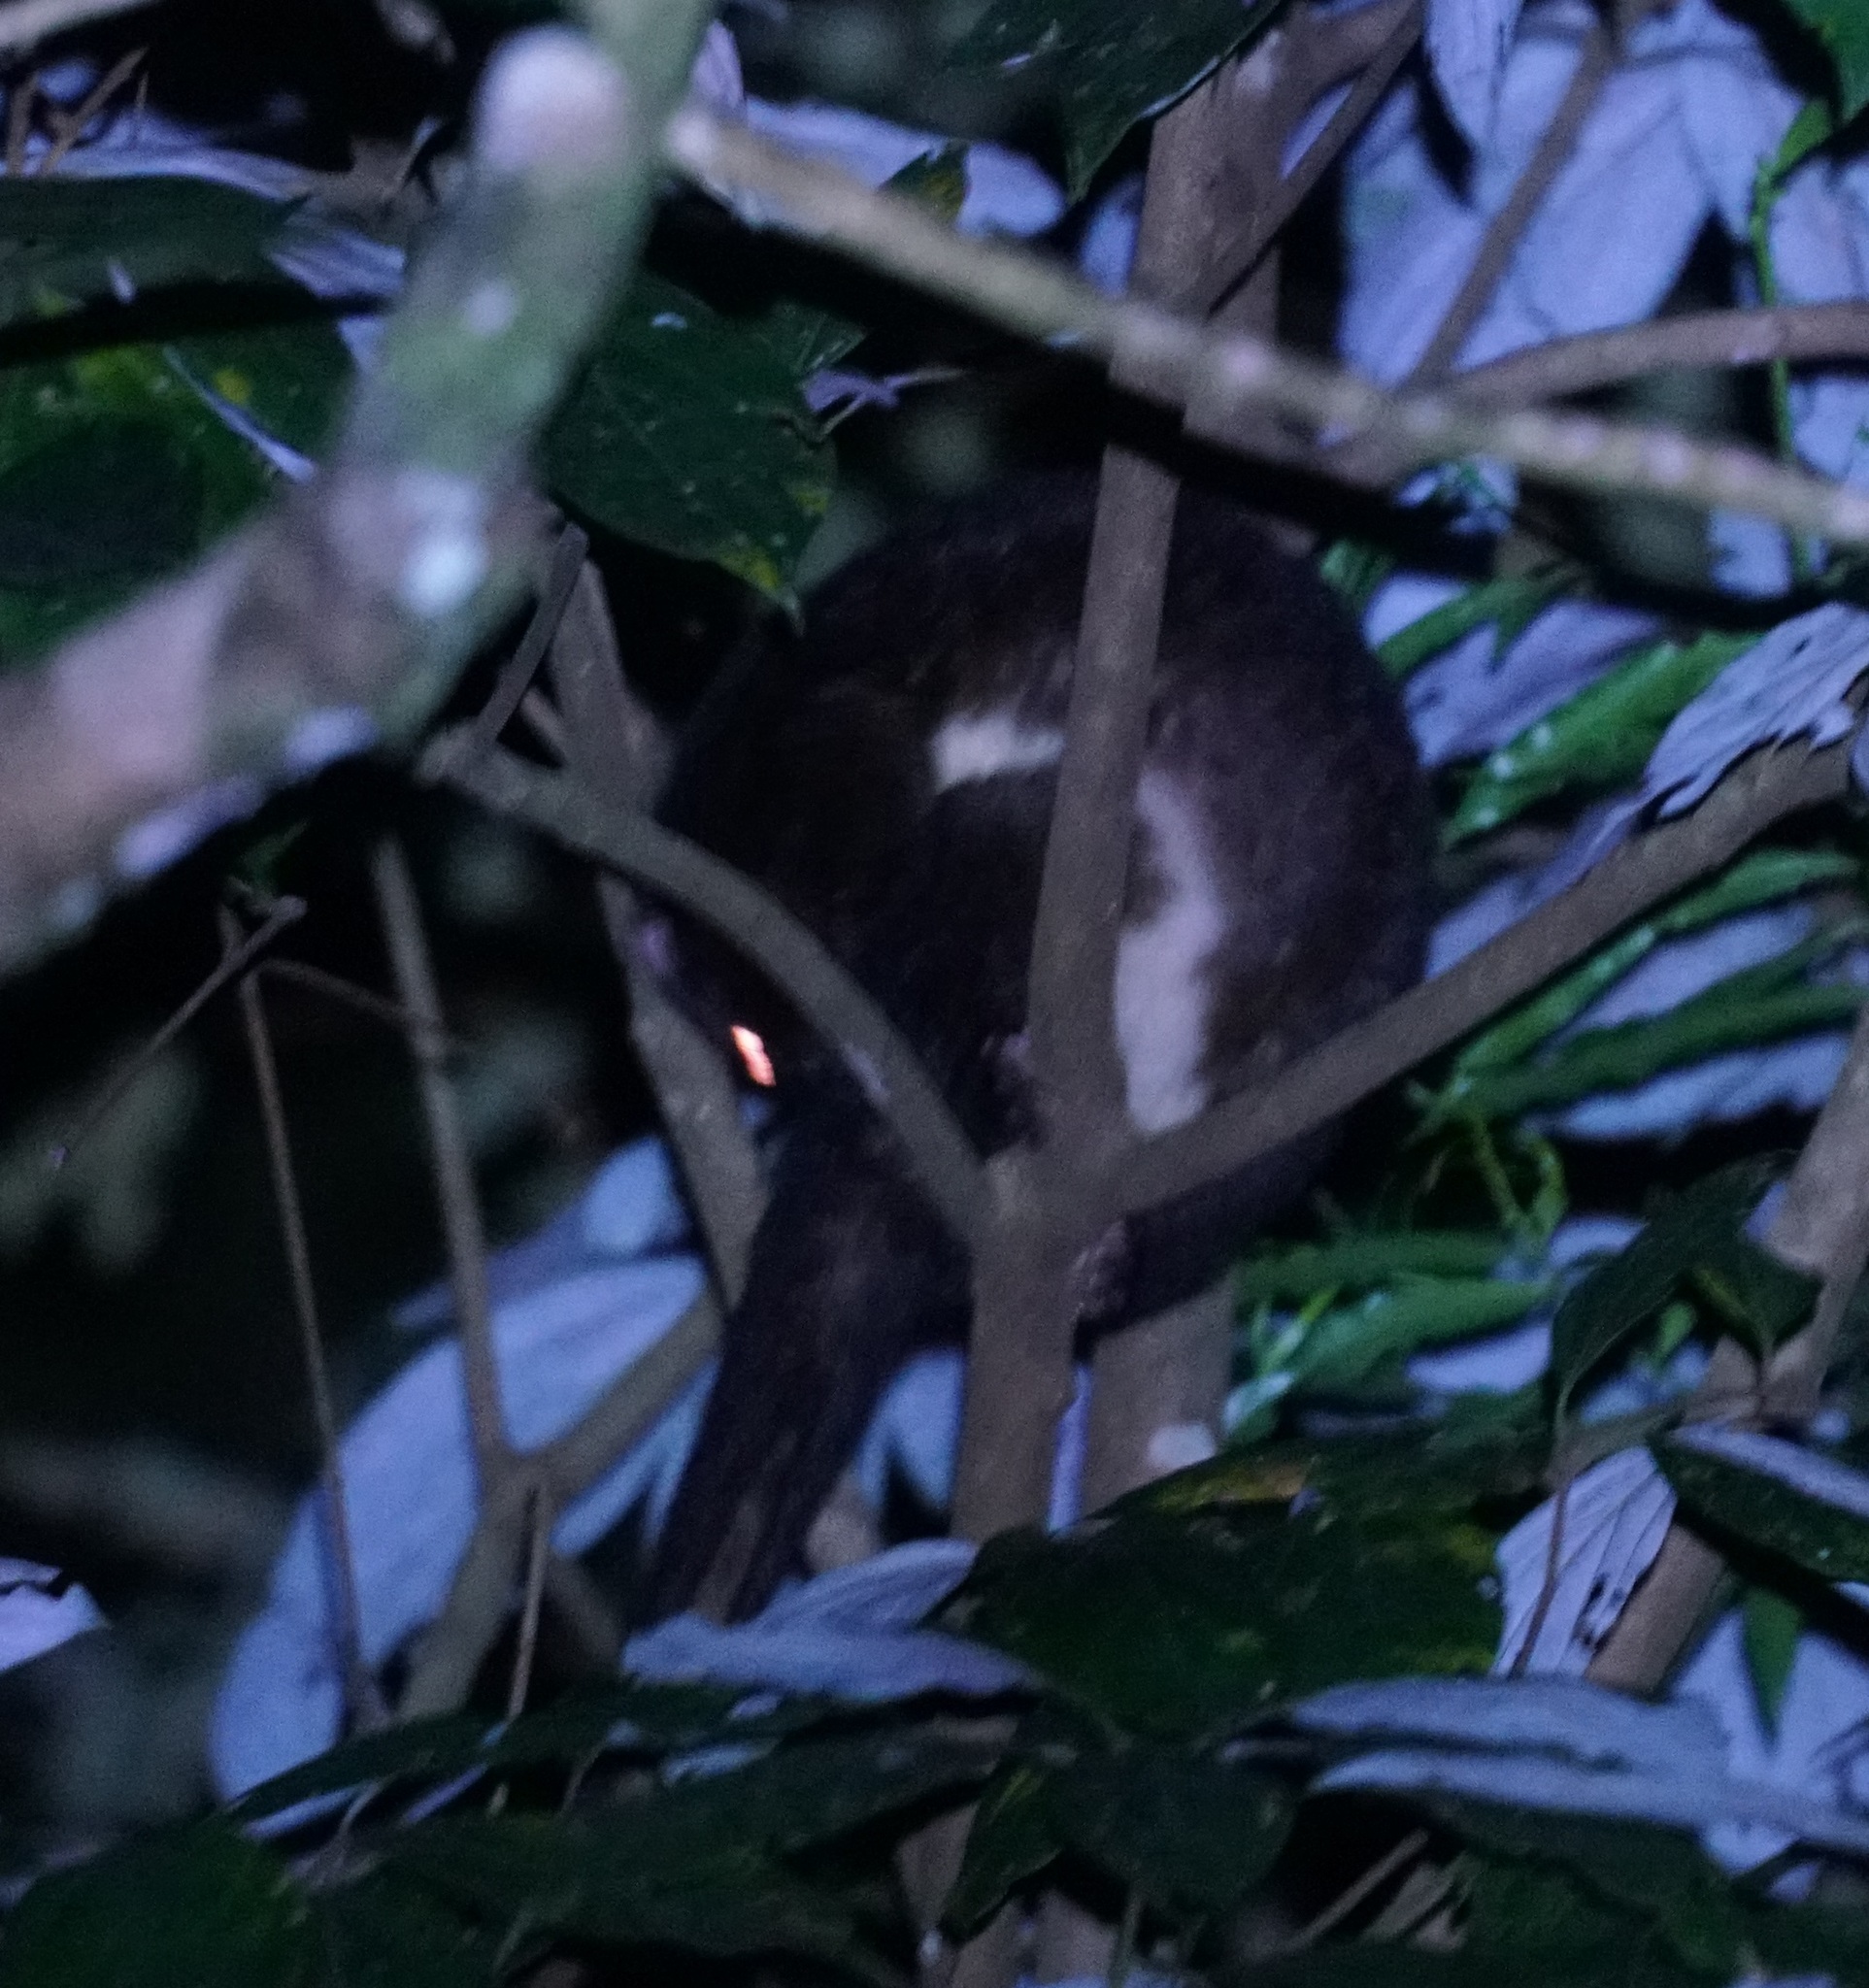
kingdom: Animalia
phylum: Chordata
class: Mammalia
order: Diprotodontia
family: Pseudocheiridae
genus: Pseudochirulus
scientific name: Pseudochirulus herbertensis
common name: Herbert river ringtail
